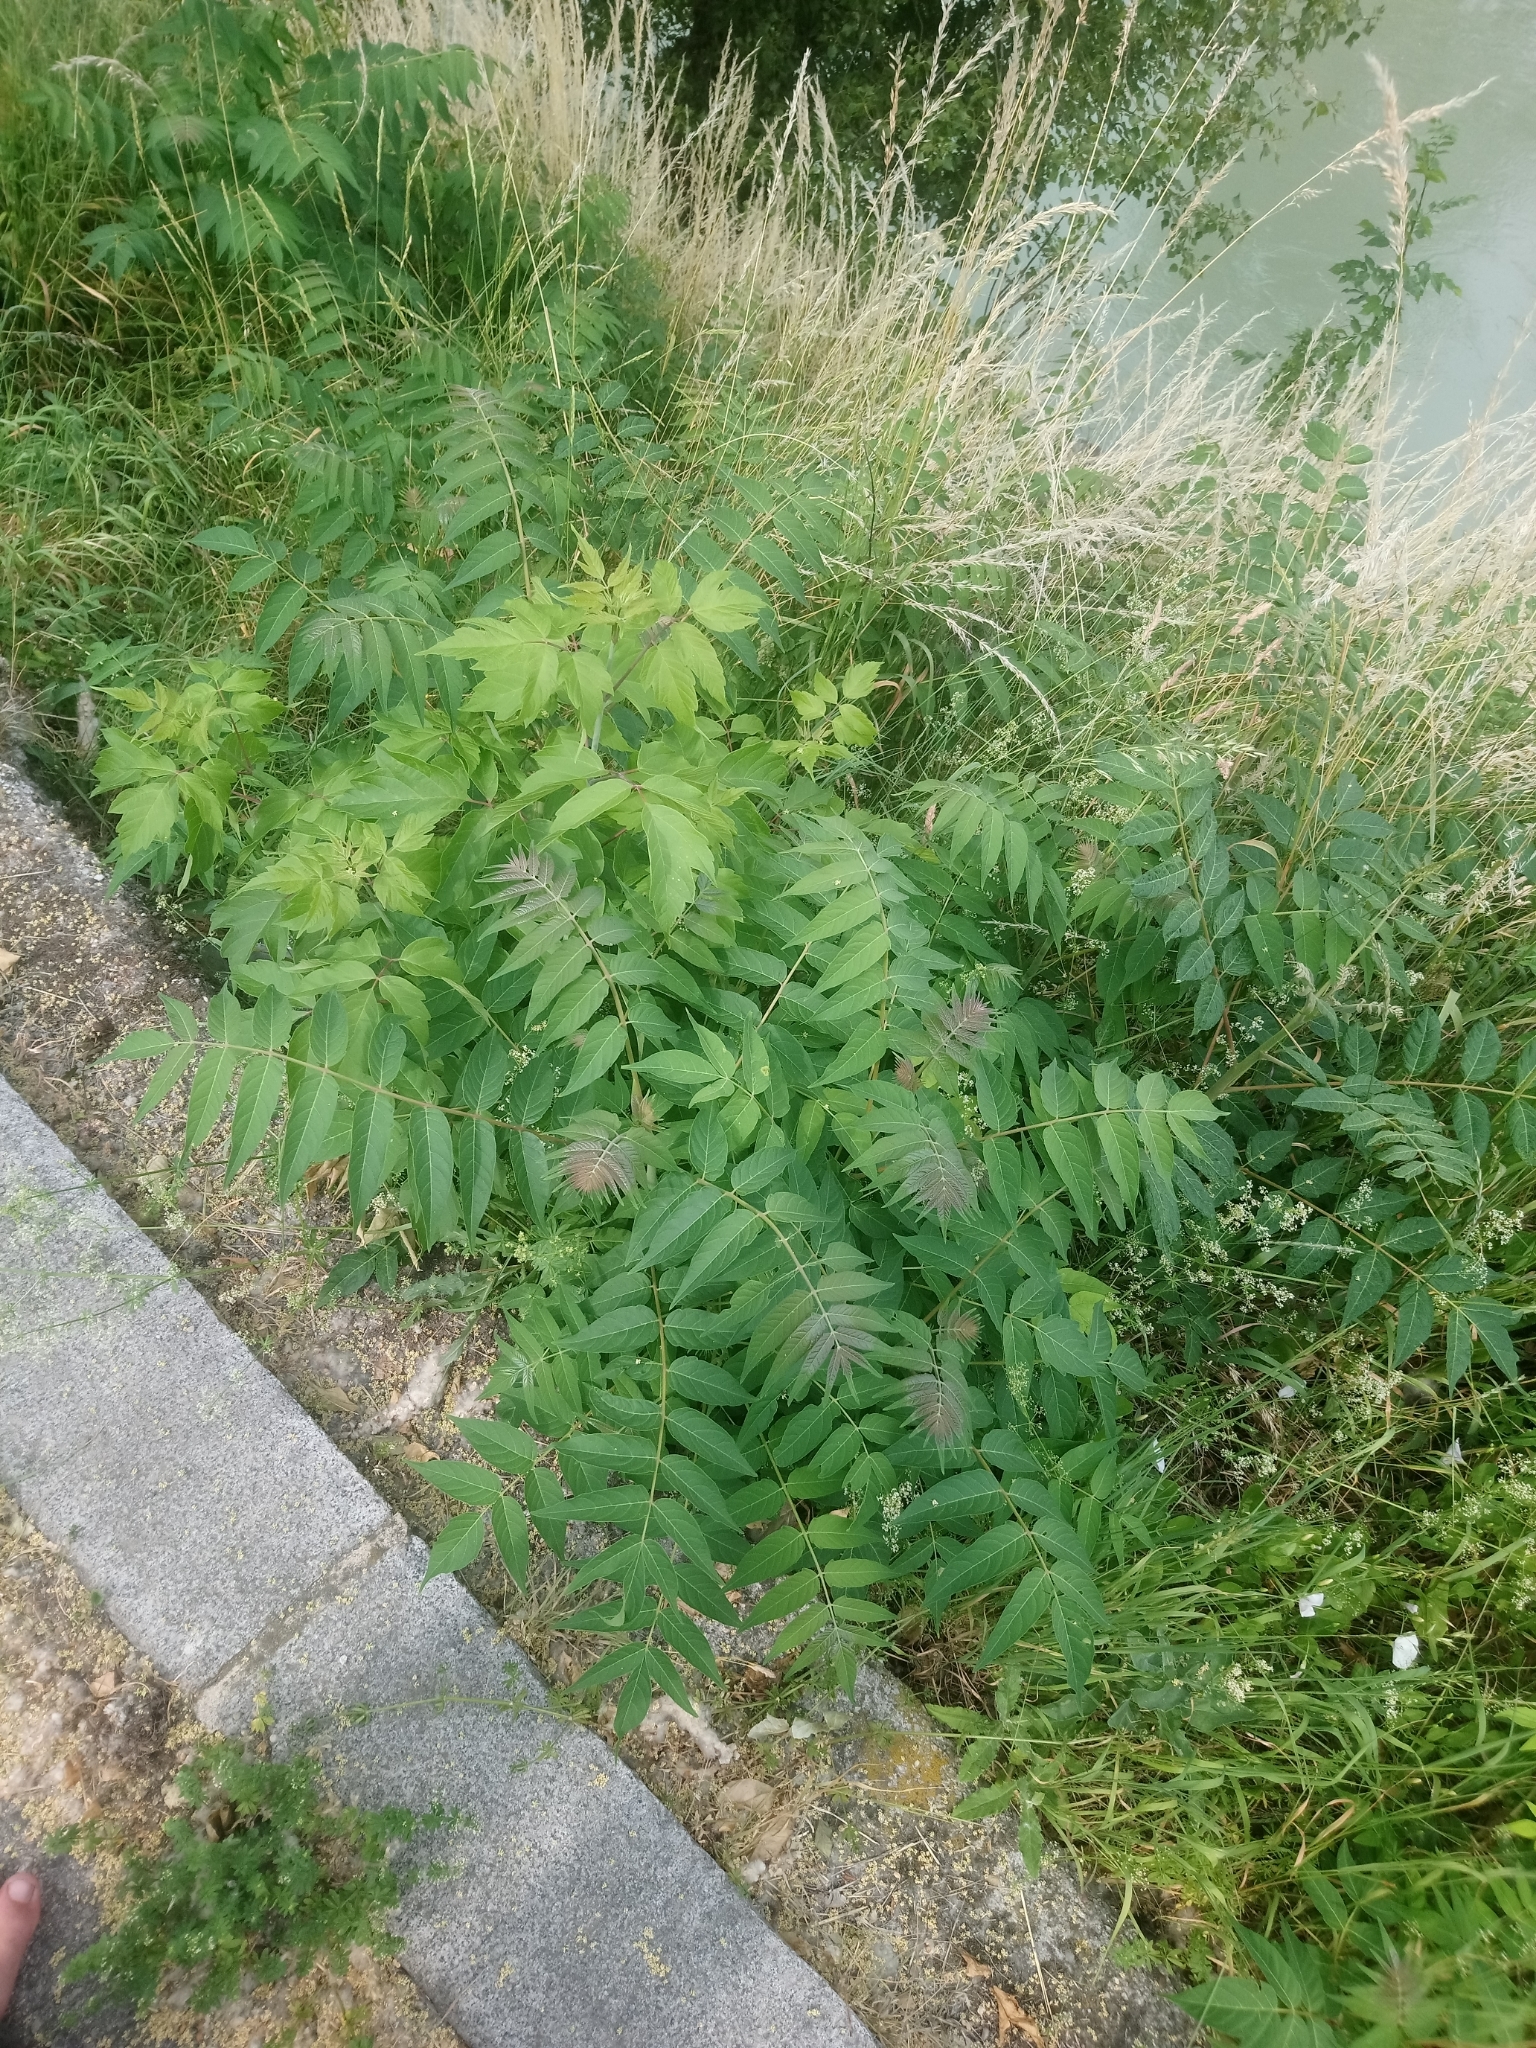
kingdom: Plantae
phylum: Tracheophyta
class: Magnoliopsida
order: Sapindales
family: Simaroubaceae
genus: Ailanthus
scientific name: Ailanthus altissima
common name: Tree-of-heaven
